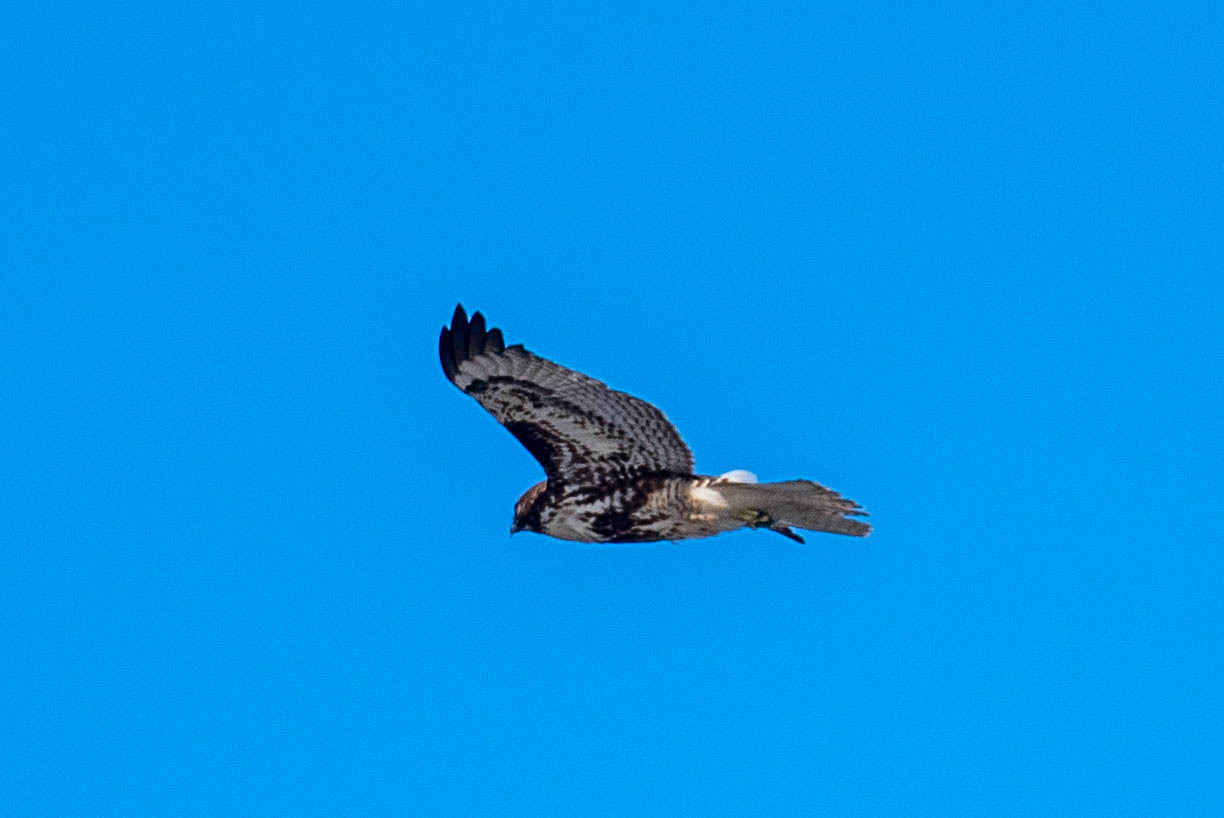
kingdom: Animalia
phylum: Chordata
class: Aves
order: Accipitriformes
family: Accipitridae
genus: Buteo
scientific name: Buteo jamaicensis
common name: Red-tailed hawk
